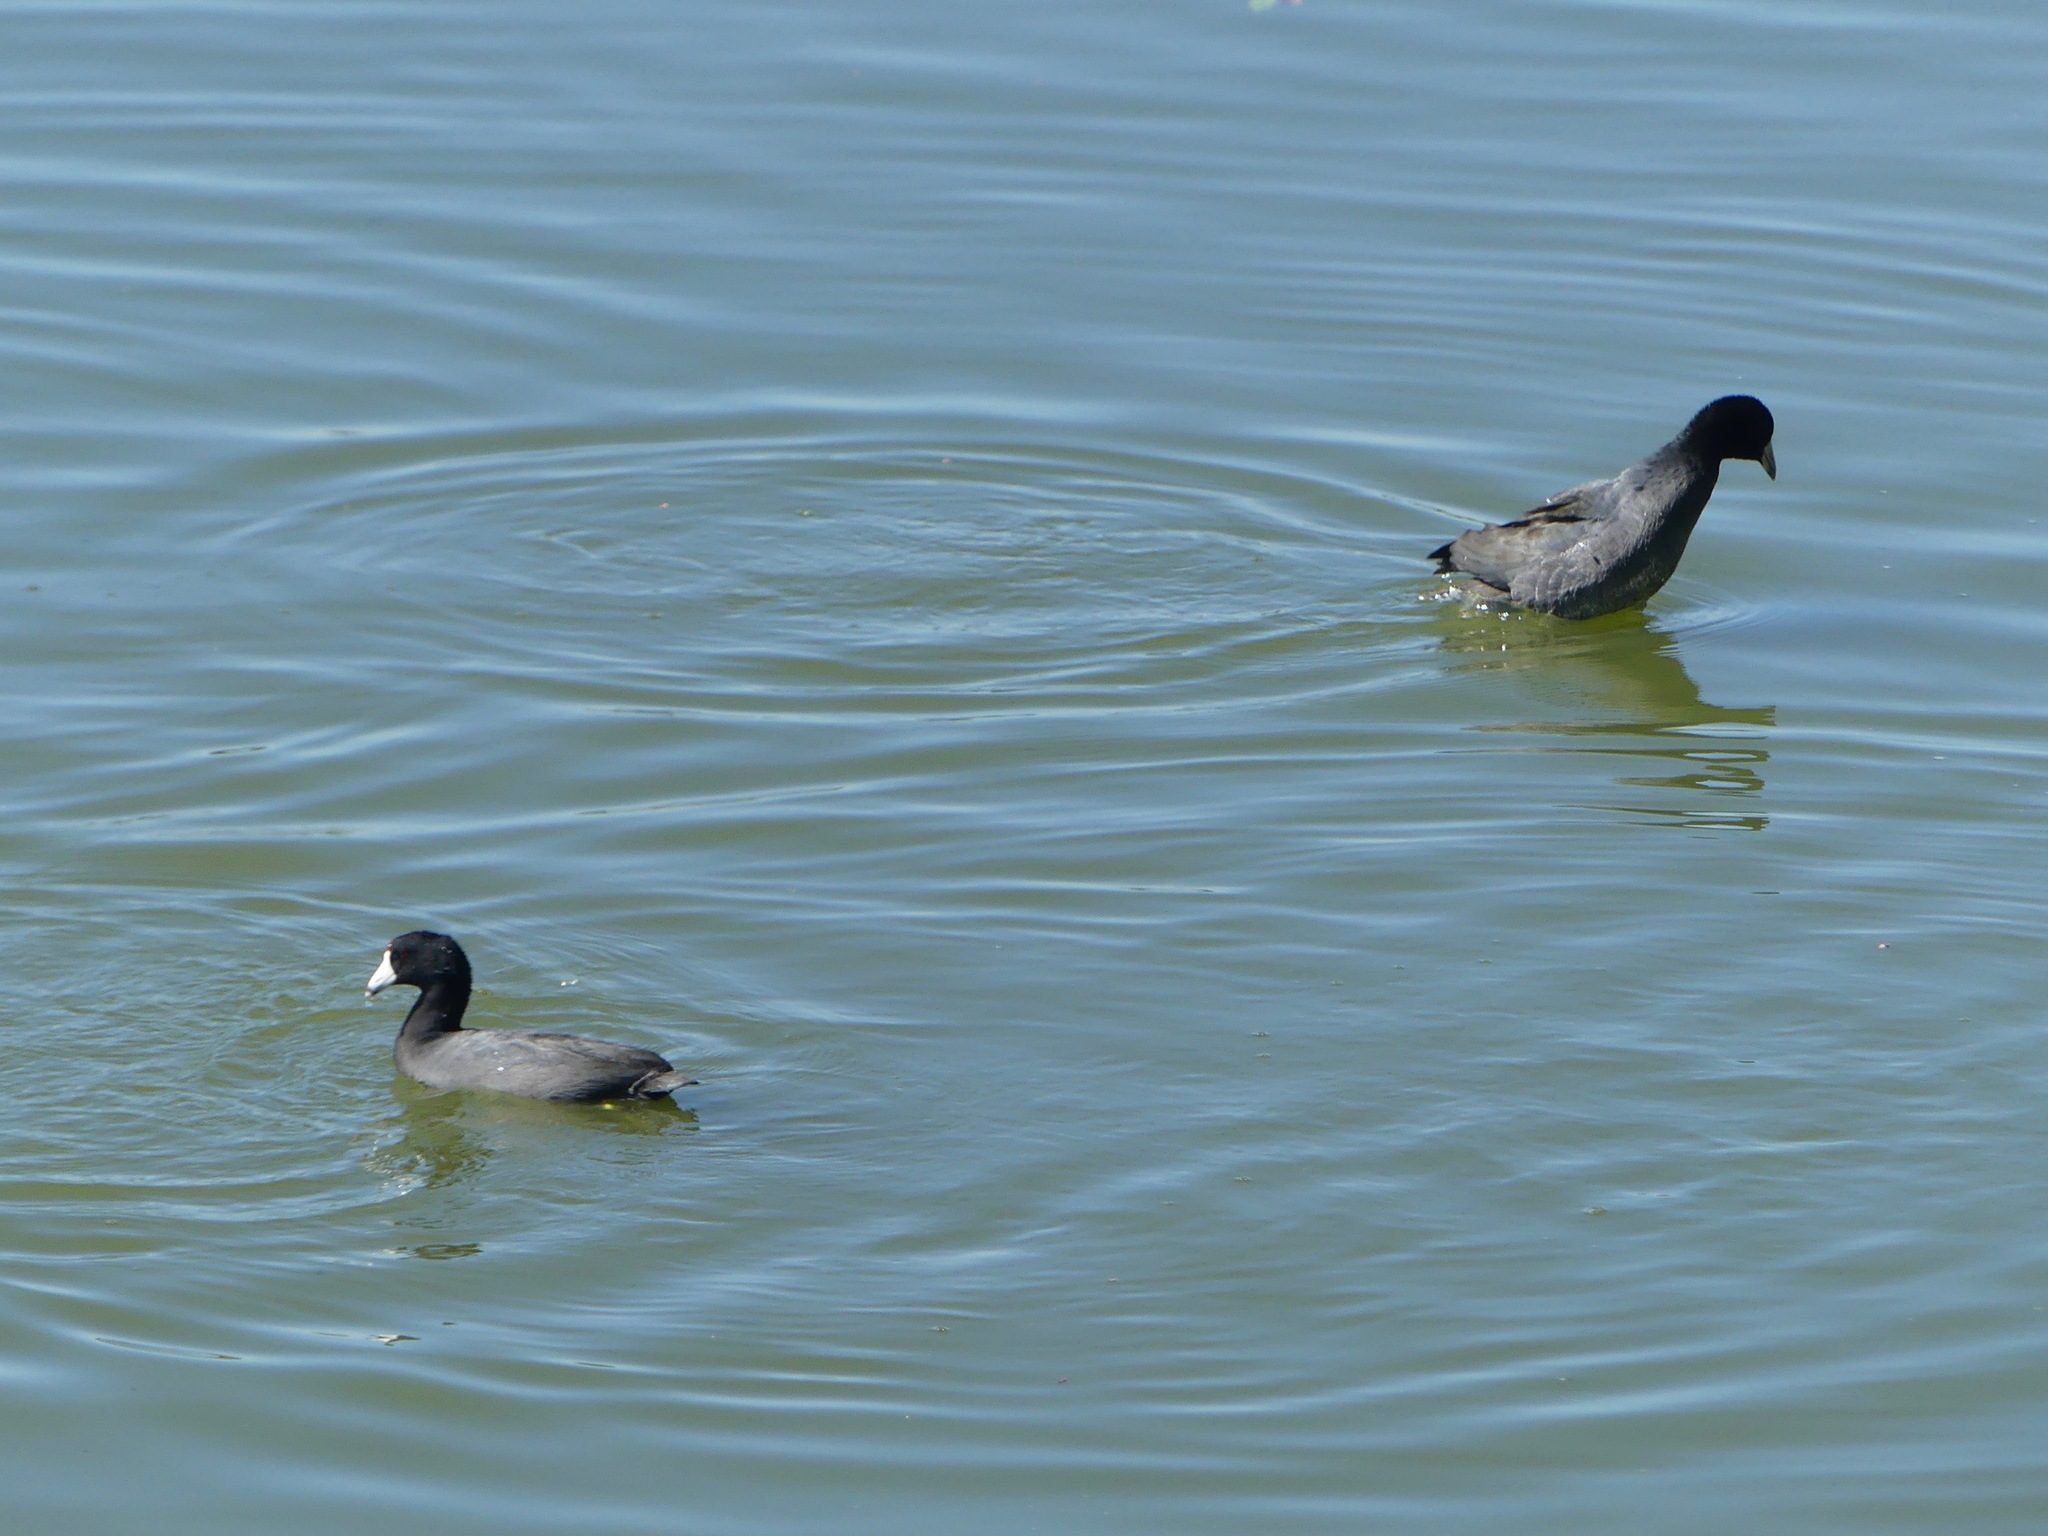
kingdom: Animalia
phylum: Chordata
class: Aves
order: Gruiformes
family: Rallidae
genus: Fulica
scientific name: Fulica americana
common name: American coot
